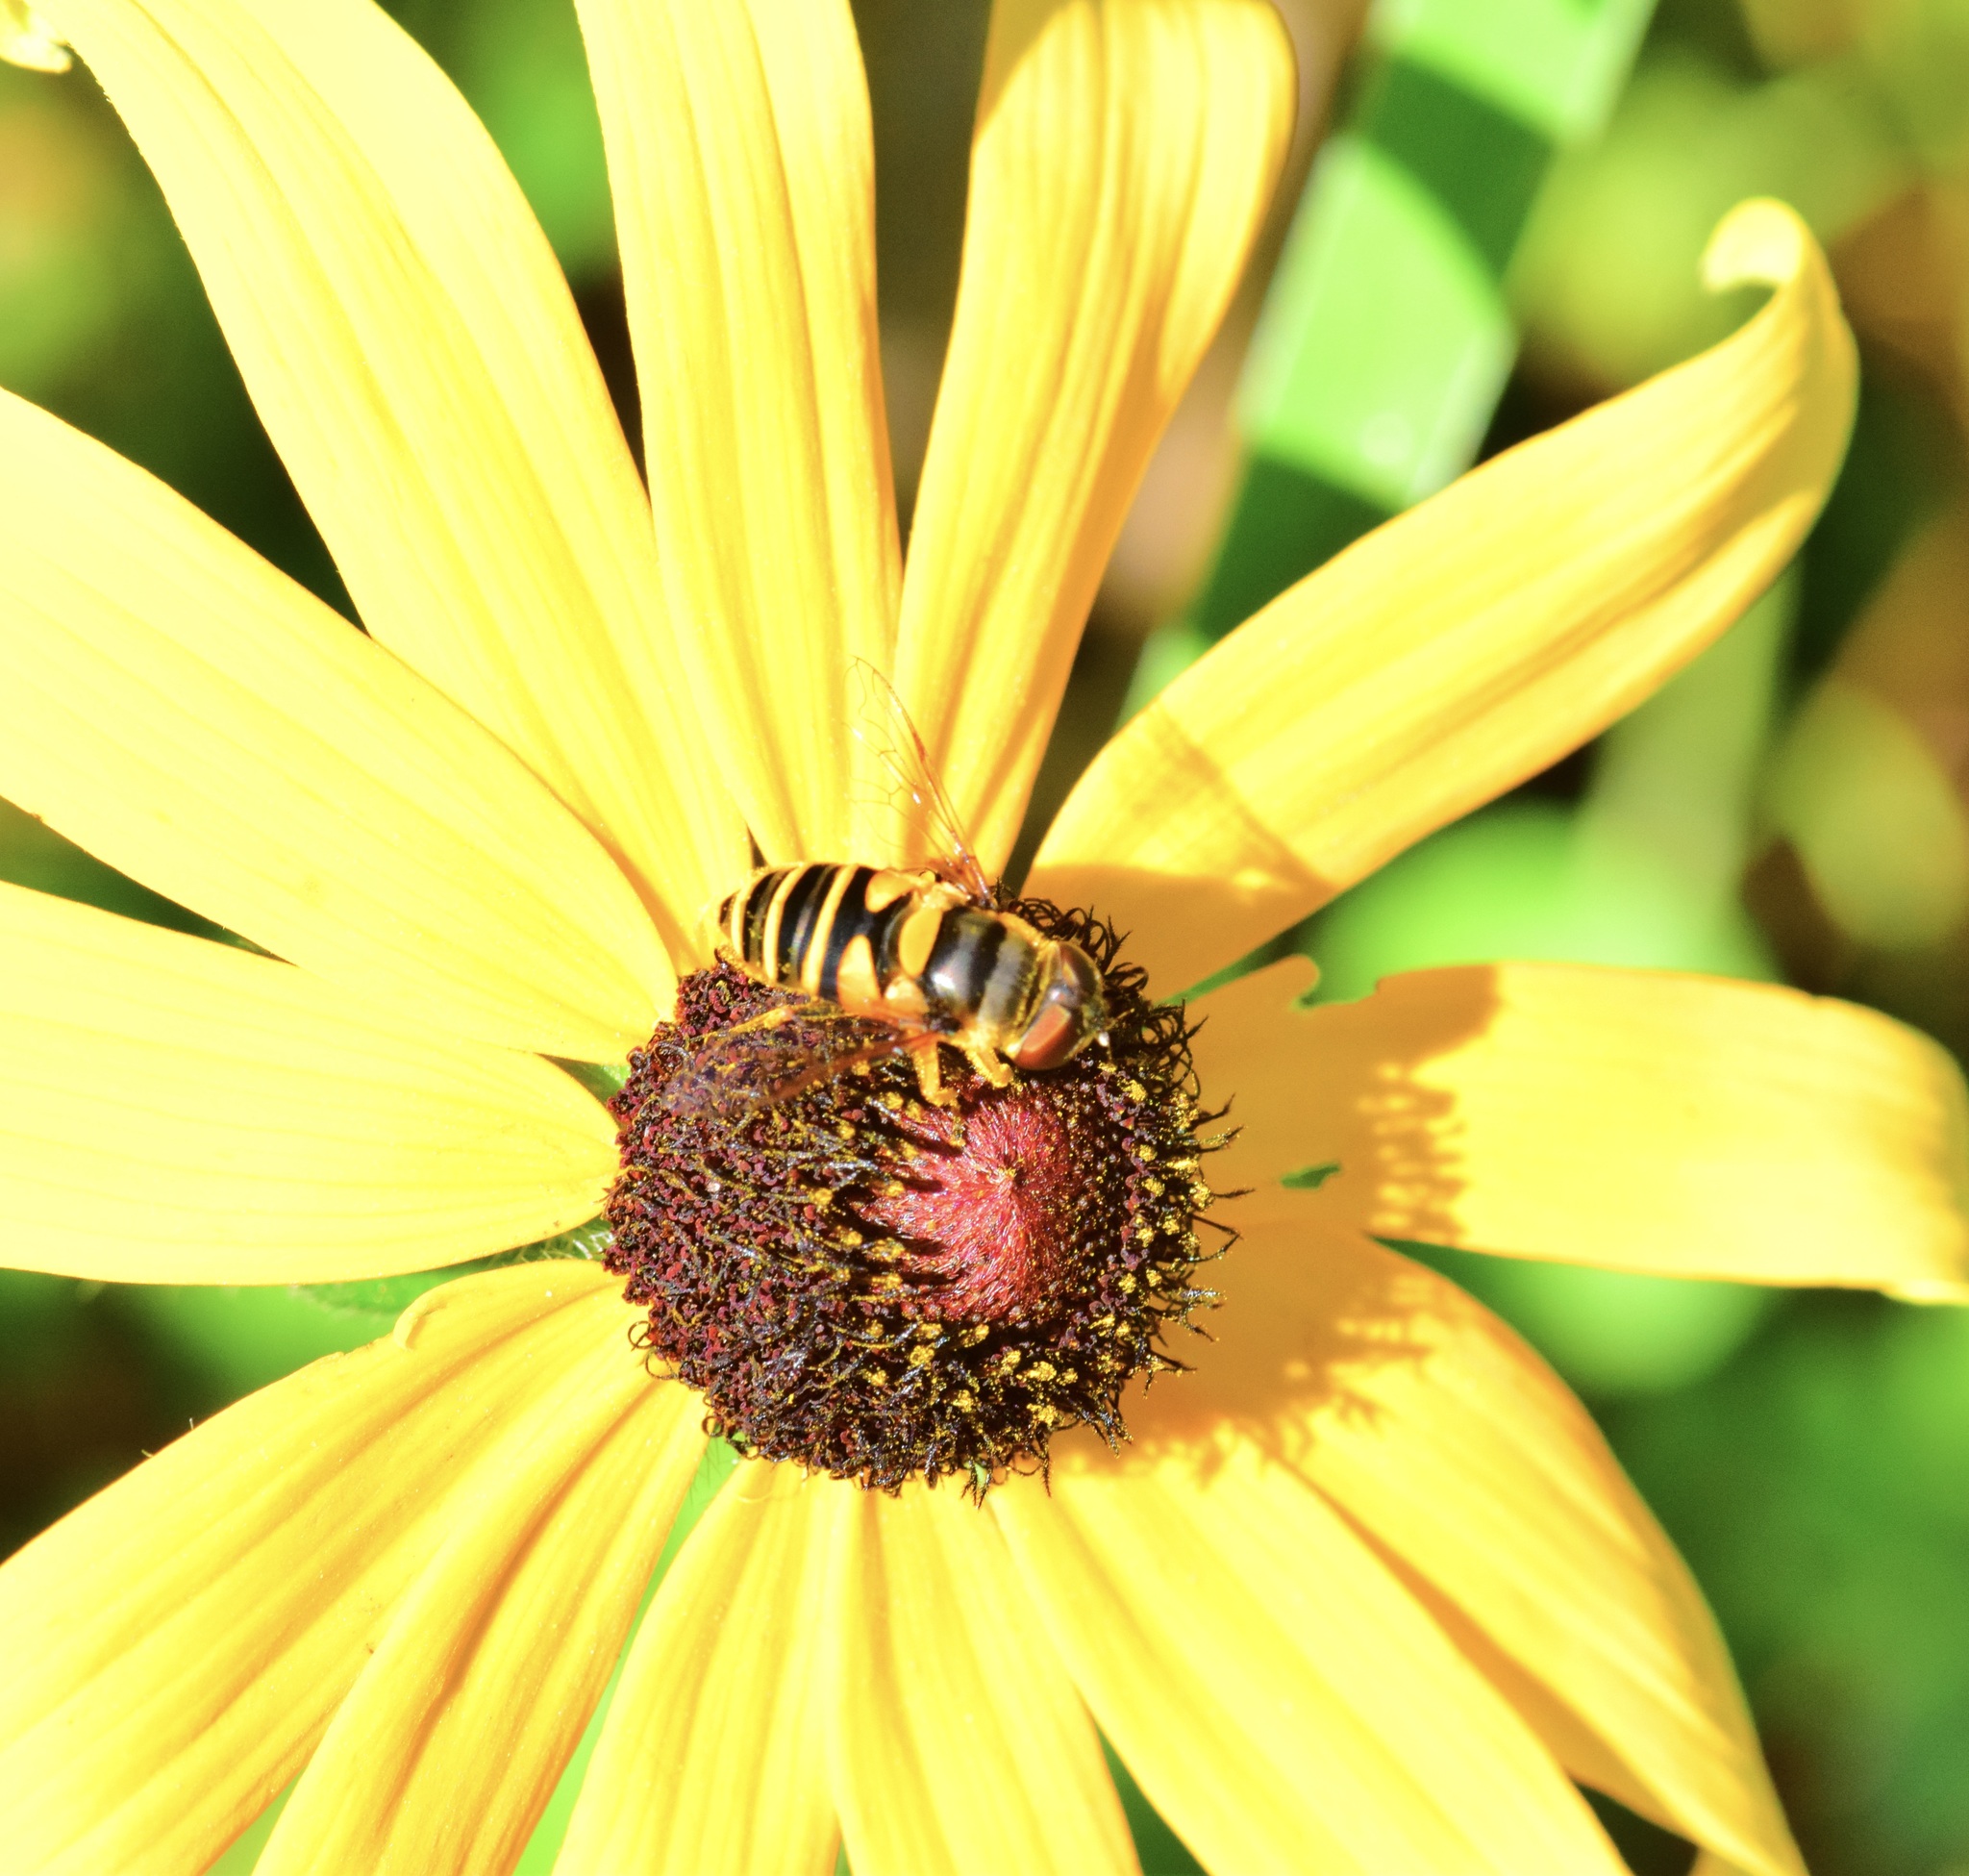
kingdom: Animalia
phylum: Arthropoda
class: Insecta
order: Diptera
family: Syrphidae
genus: Eristalis
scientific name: Eristalis transversa
